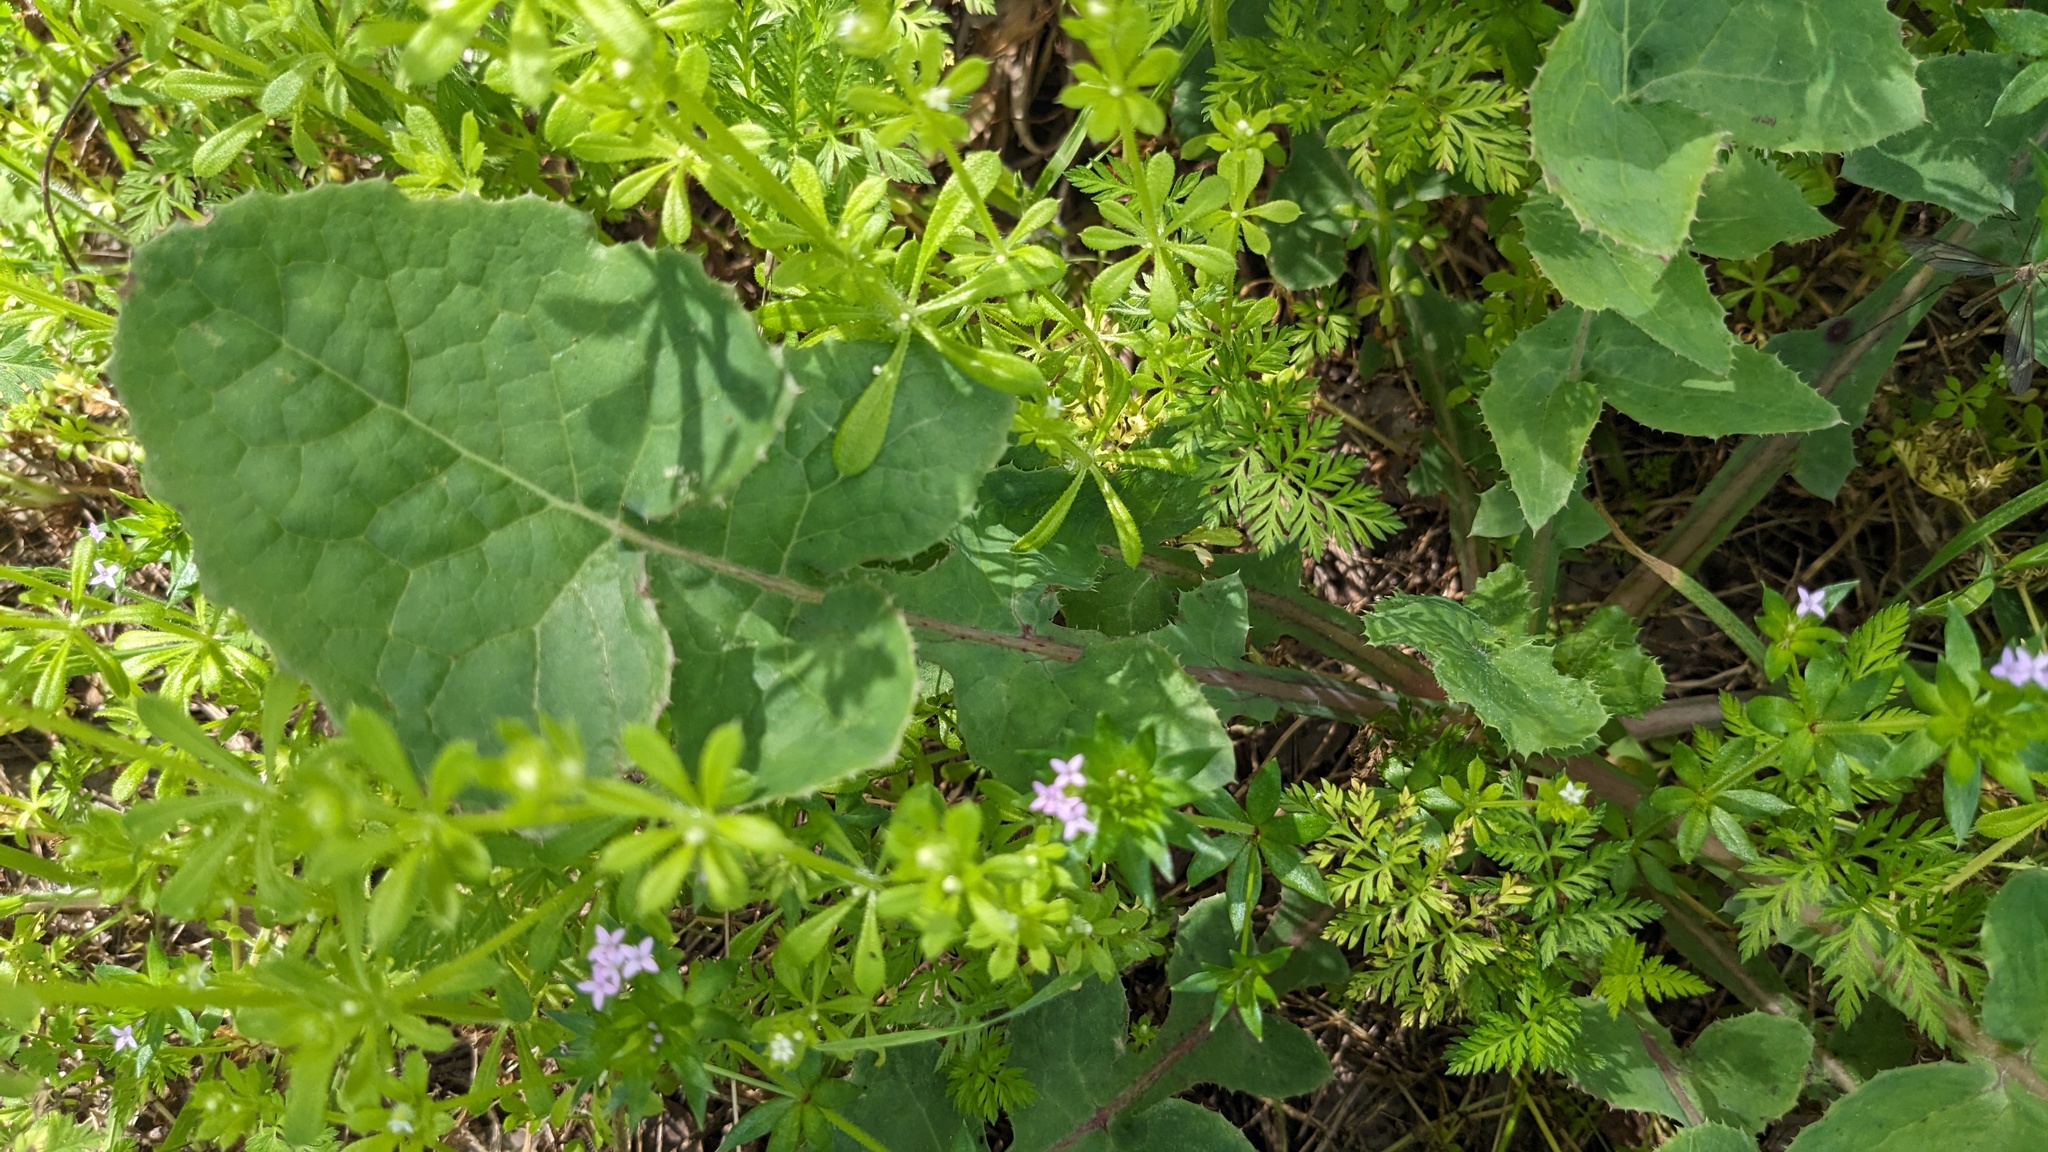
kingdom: Plantae
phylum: Tracheophyta
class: Magnoliopsida
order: Gentianales
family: Rubiaceae
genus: Sherardia
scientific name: Sherardia arvensis
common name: Field madder
